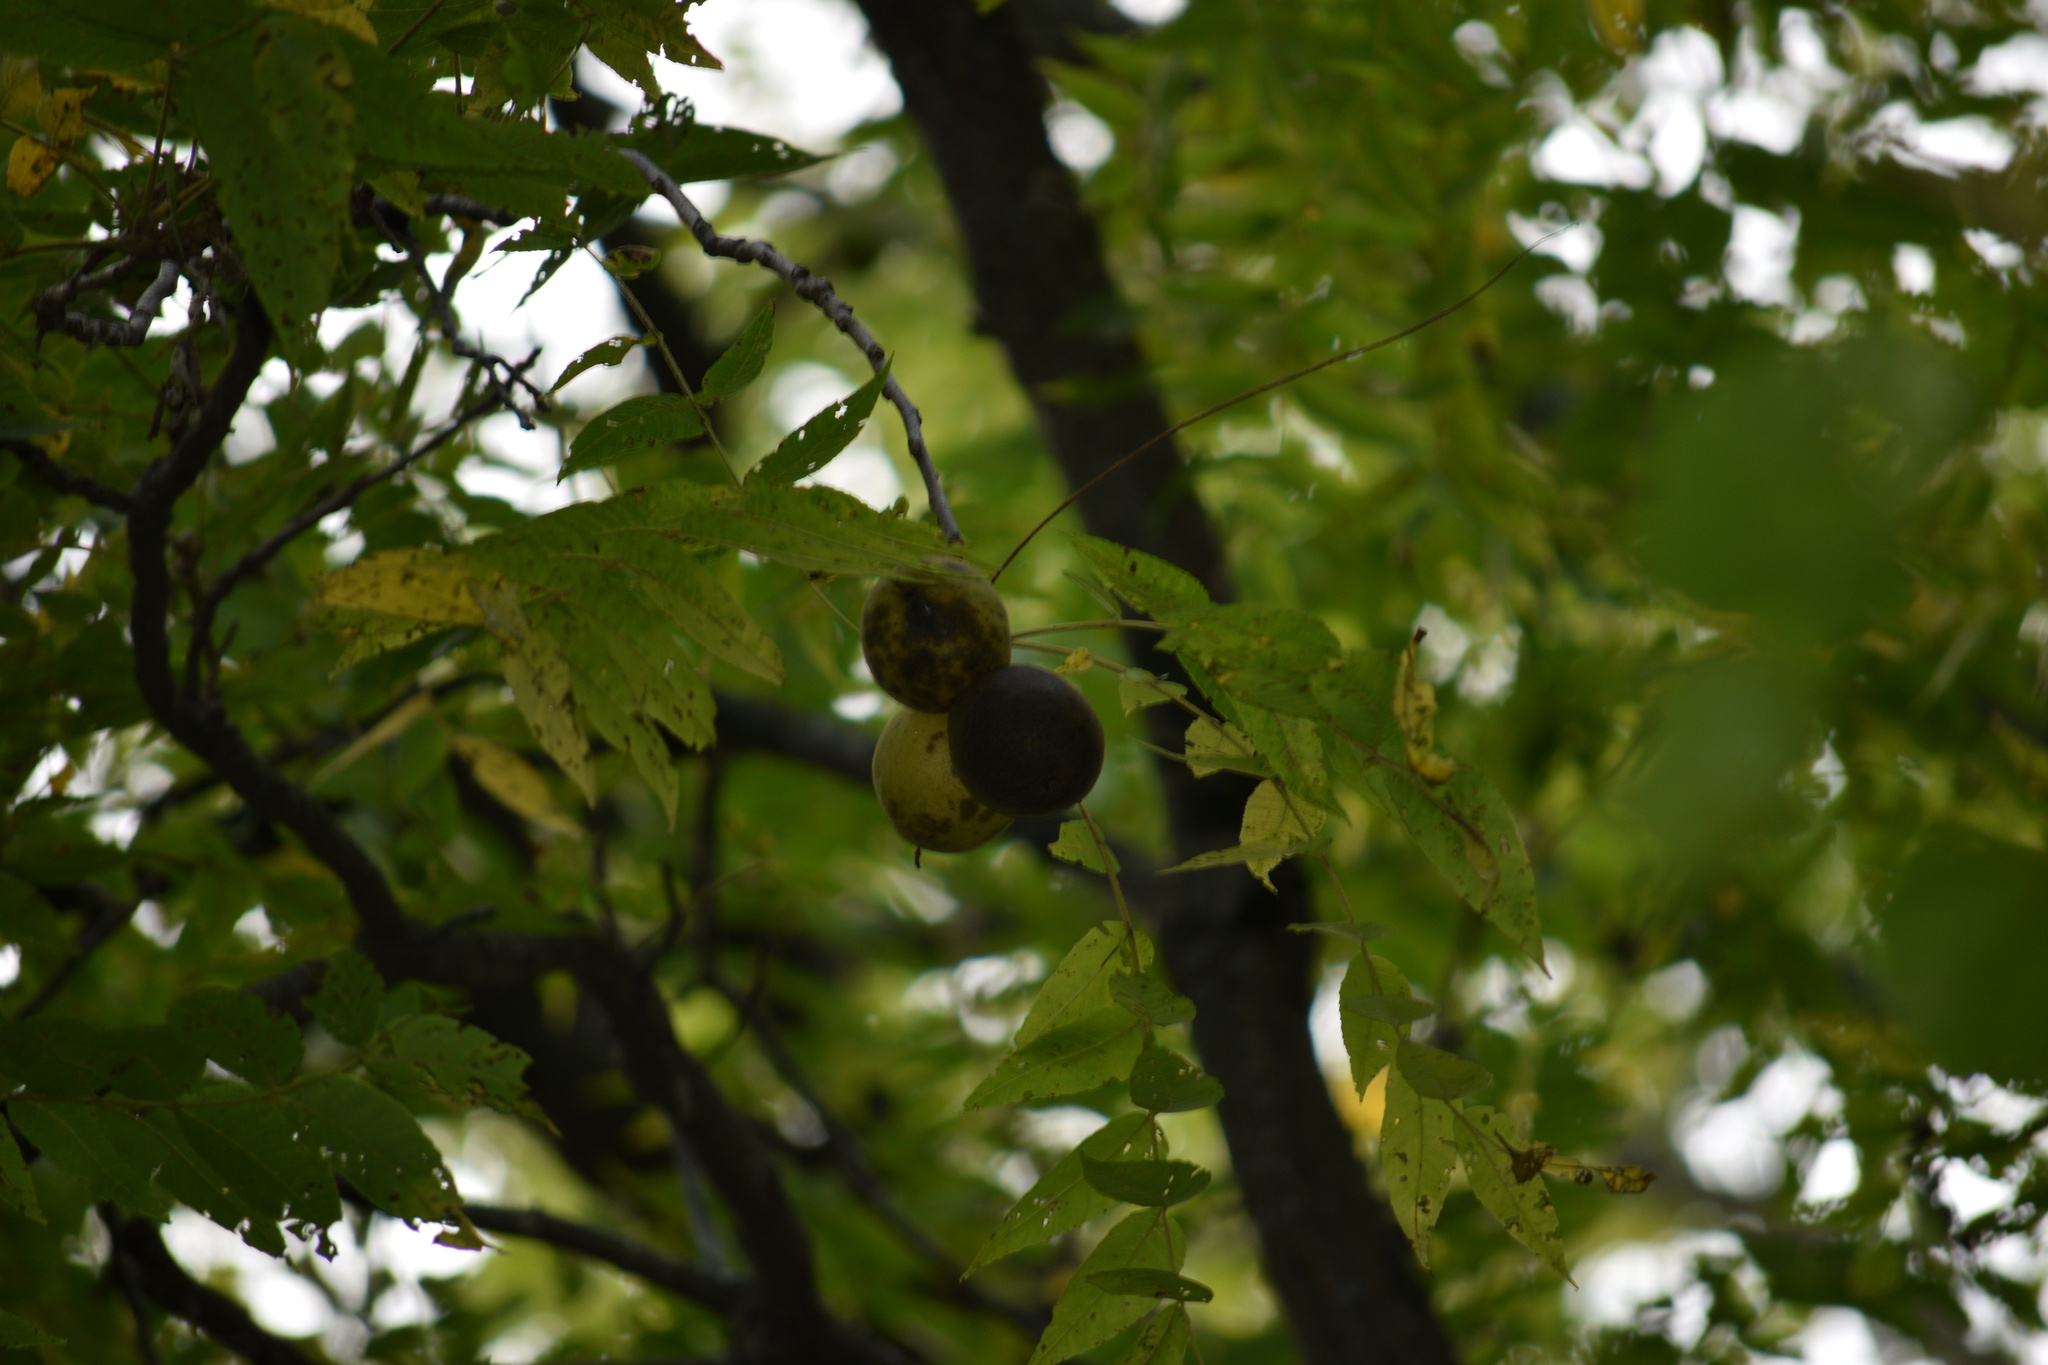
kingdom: Plantae
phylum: Tracheophyta
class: Magnoliopsida
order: Fagales
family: Juglandaceae
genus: Juglans
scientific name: Juglans nigra
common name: Black walnut
